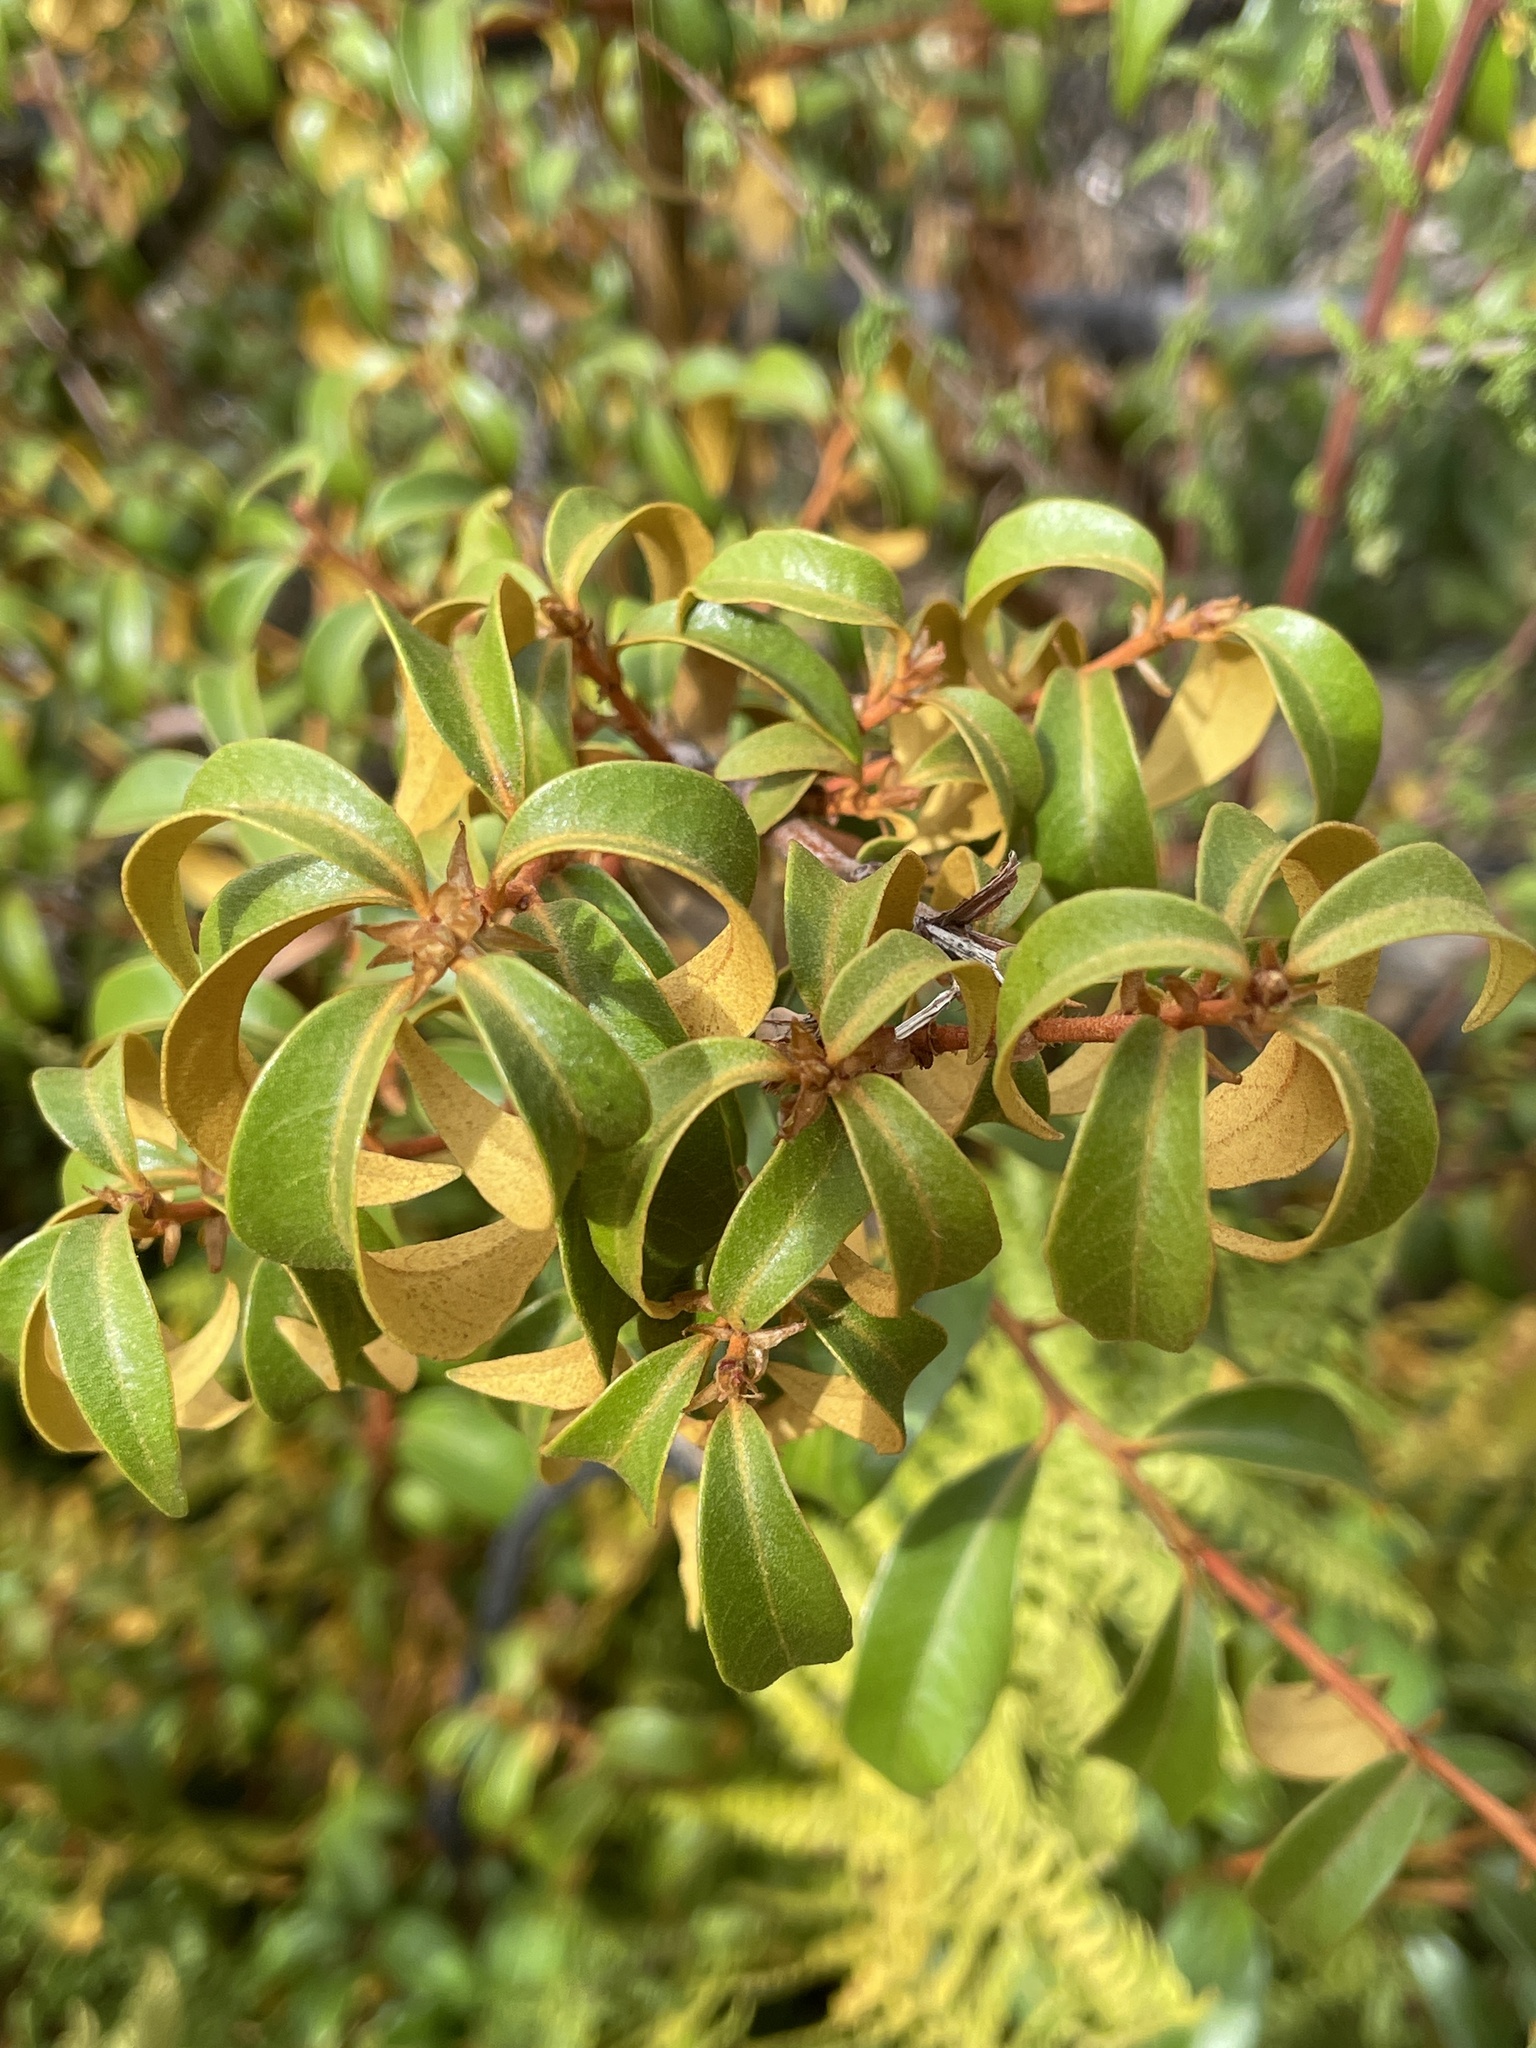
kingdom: Plantae
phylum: Tracheophyta
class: Magnoliopsida
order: Fagales
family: Fagaceae
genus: Chrysolepis
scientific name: Chrysolepis chrysophylla
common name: Giant chinquapin
